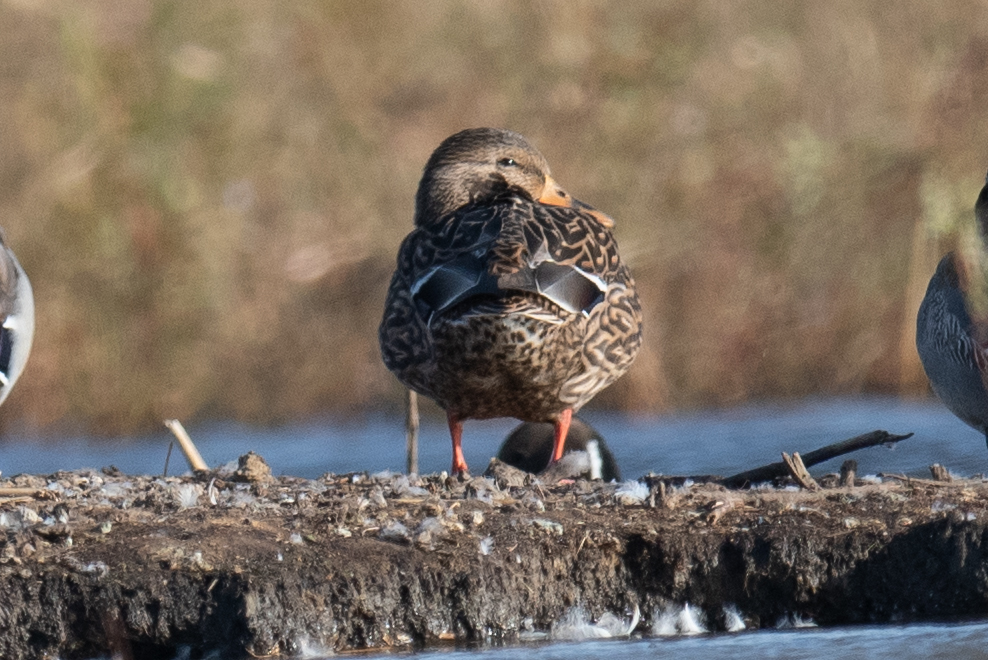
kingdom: Animalia
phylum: Chordata
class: Aves
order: Anseriformes
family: Anatidae
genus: Anas
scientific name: Anas platyrhynchos
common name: Mallard
